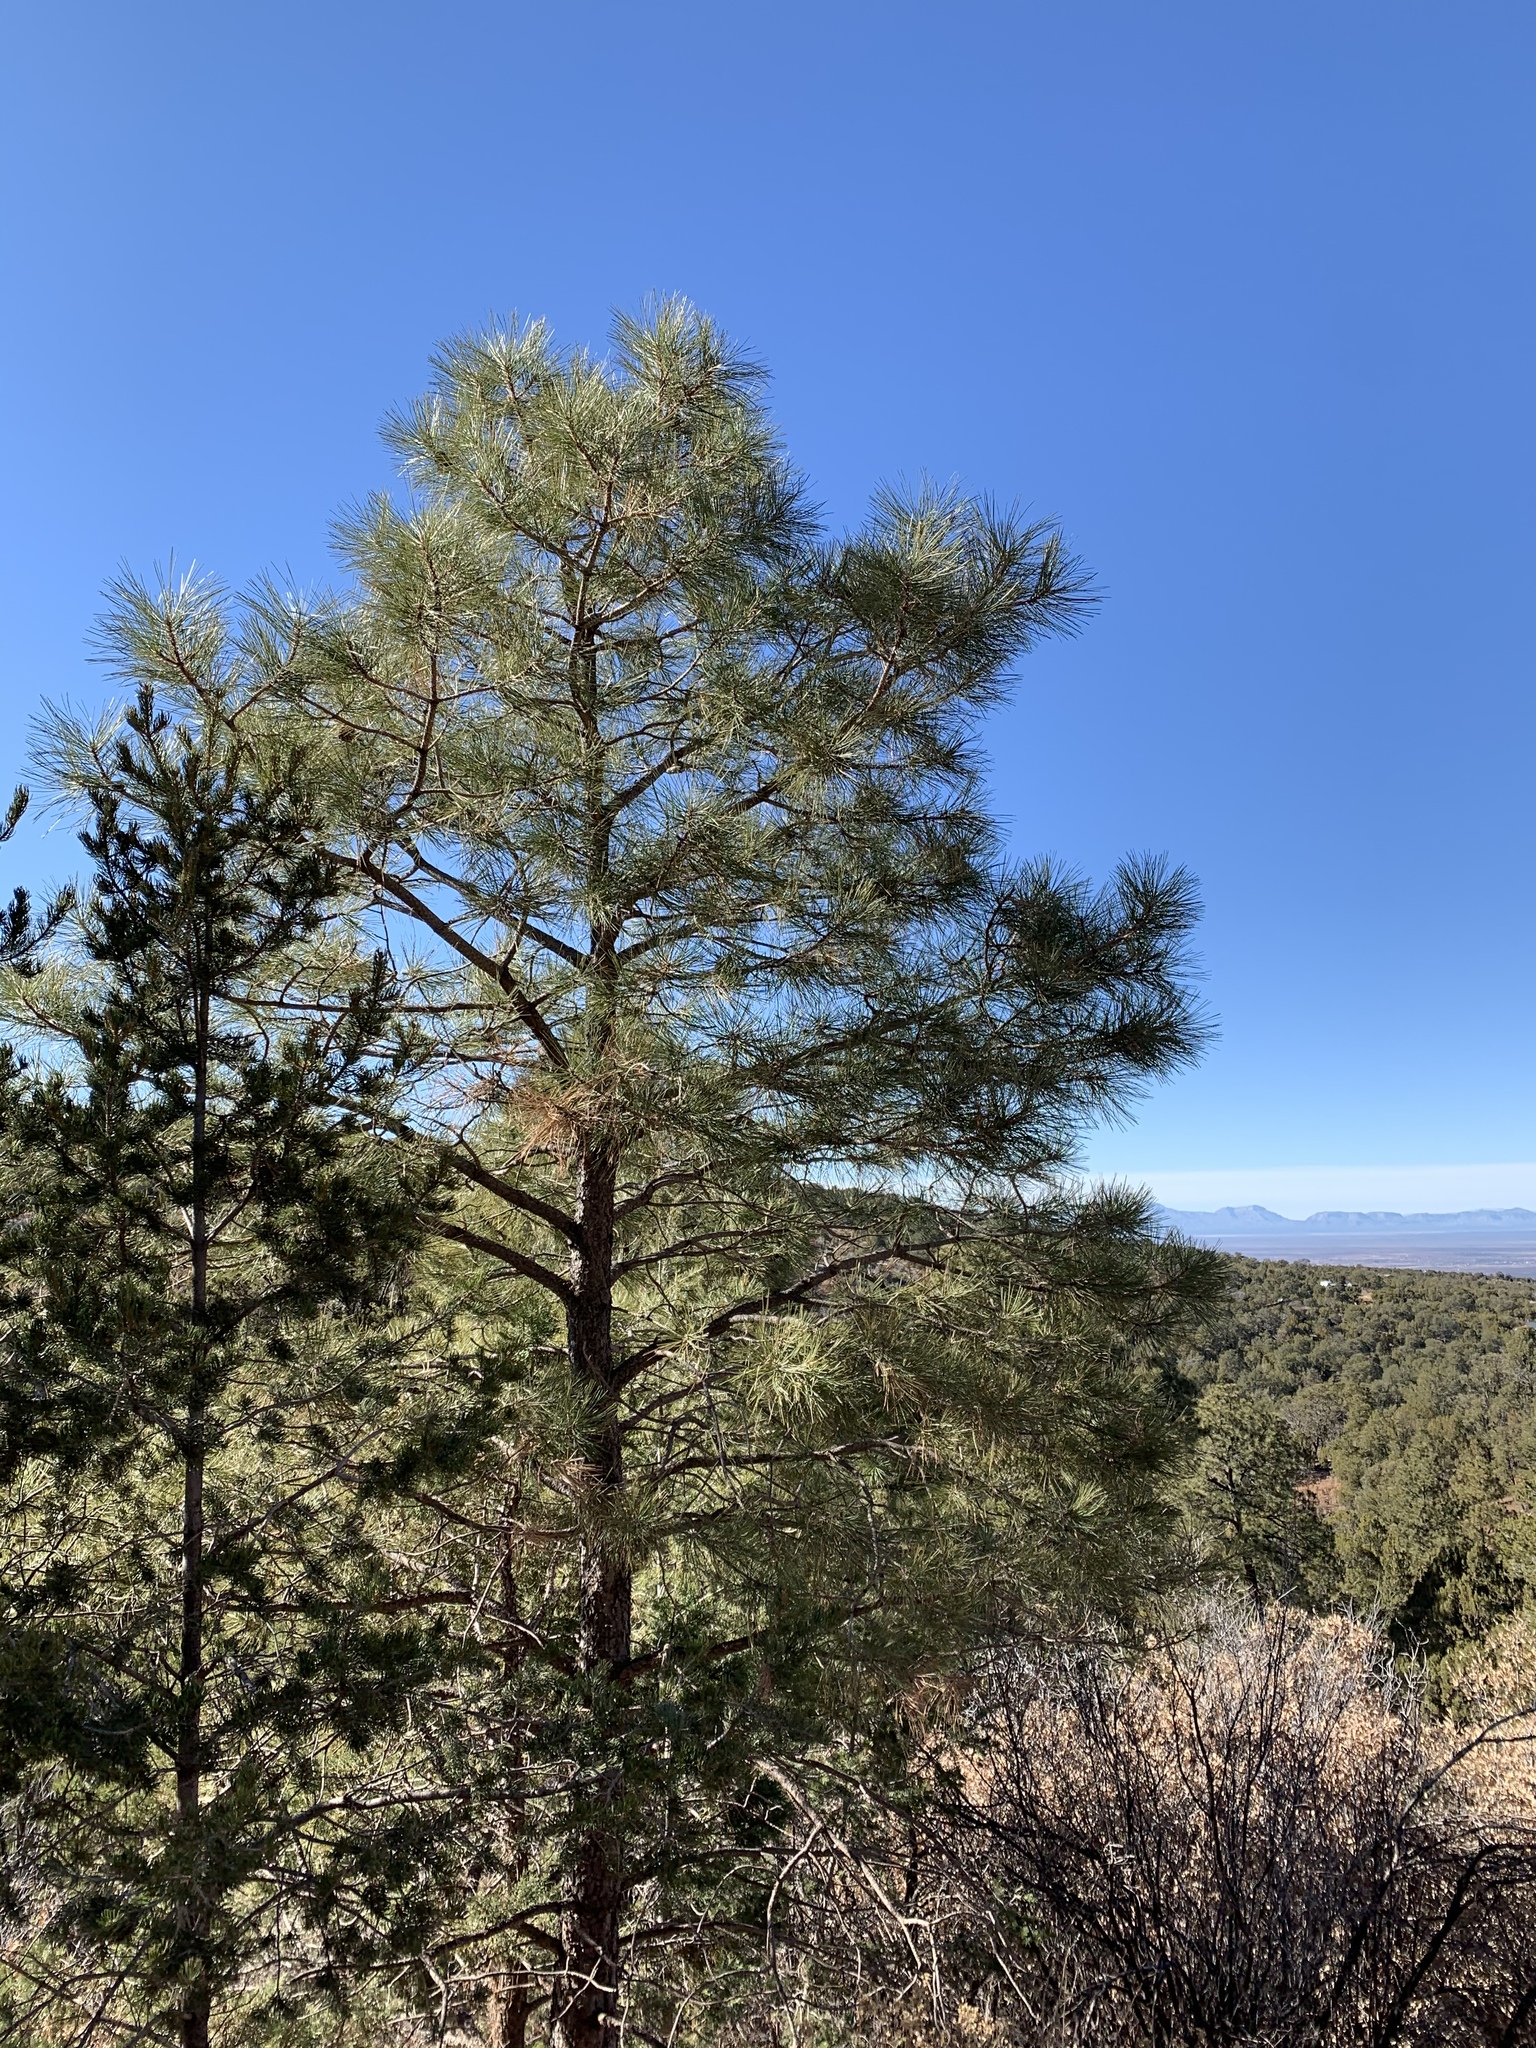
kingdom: Plantae
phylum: Tracheophyta
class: Pinopsida
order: Pinales
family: Pinaceae
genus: Pinus
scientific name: Pinus ponderosa
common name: Western yellow-pine
